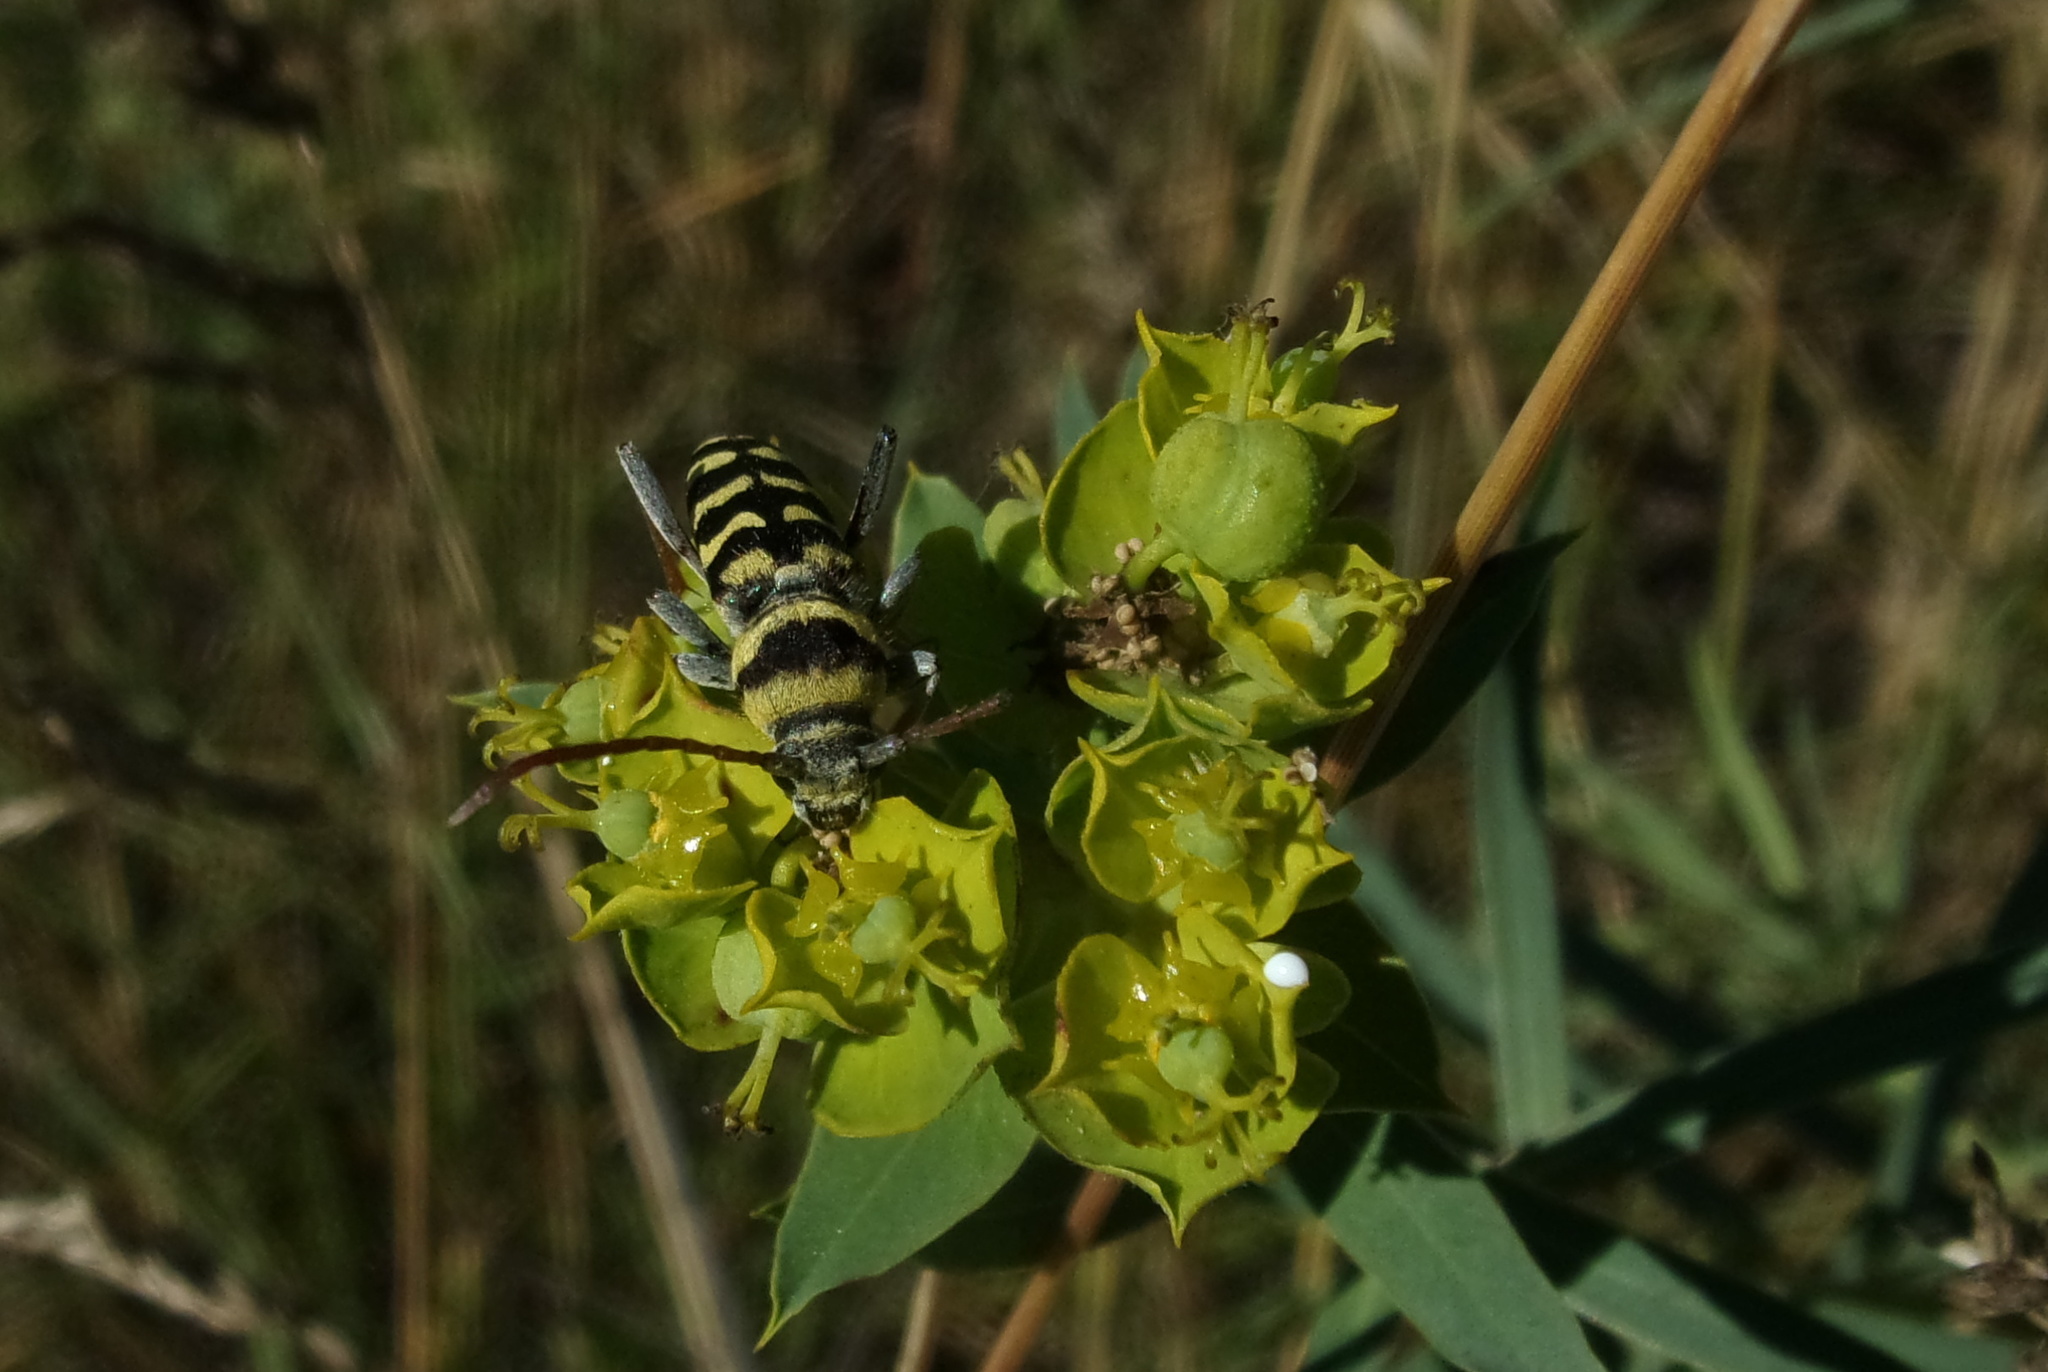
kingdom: Animalia
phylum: Arthropoda
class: Insecta
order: Coleoptera
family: Cerambycidae
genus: Plagionotus
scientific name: Plagionotus floralis
